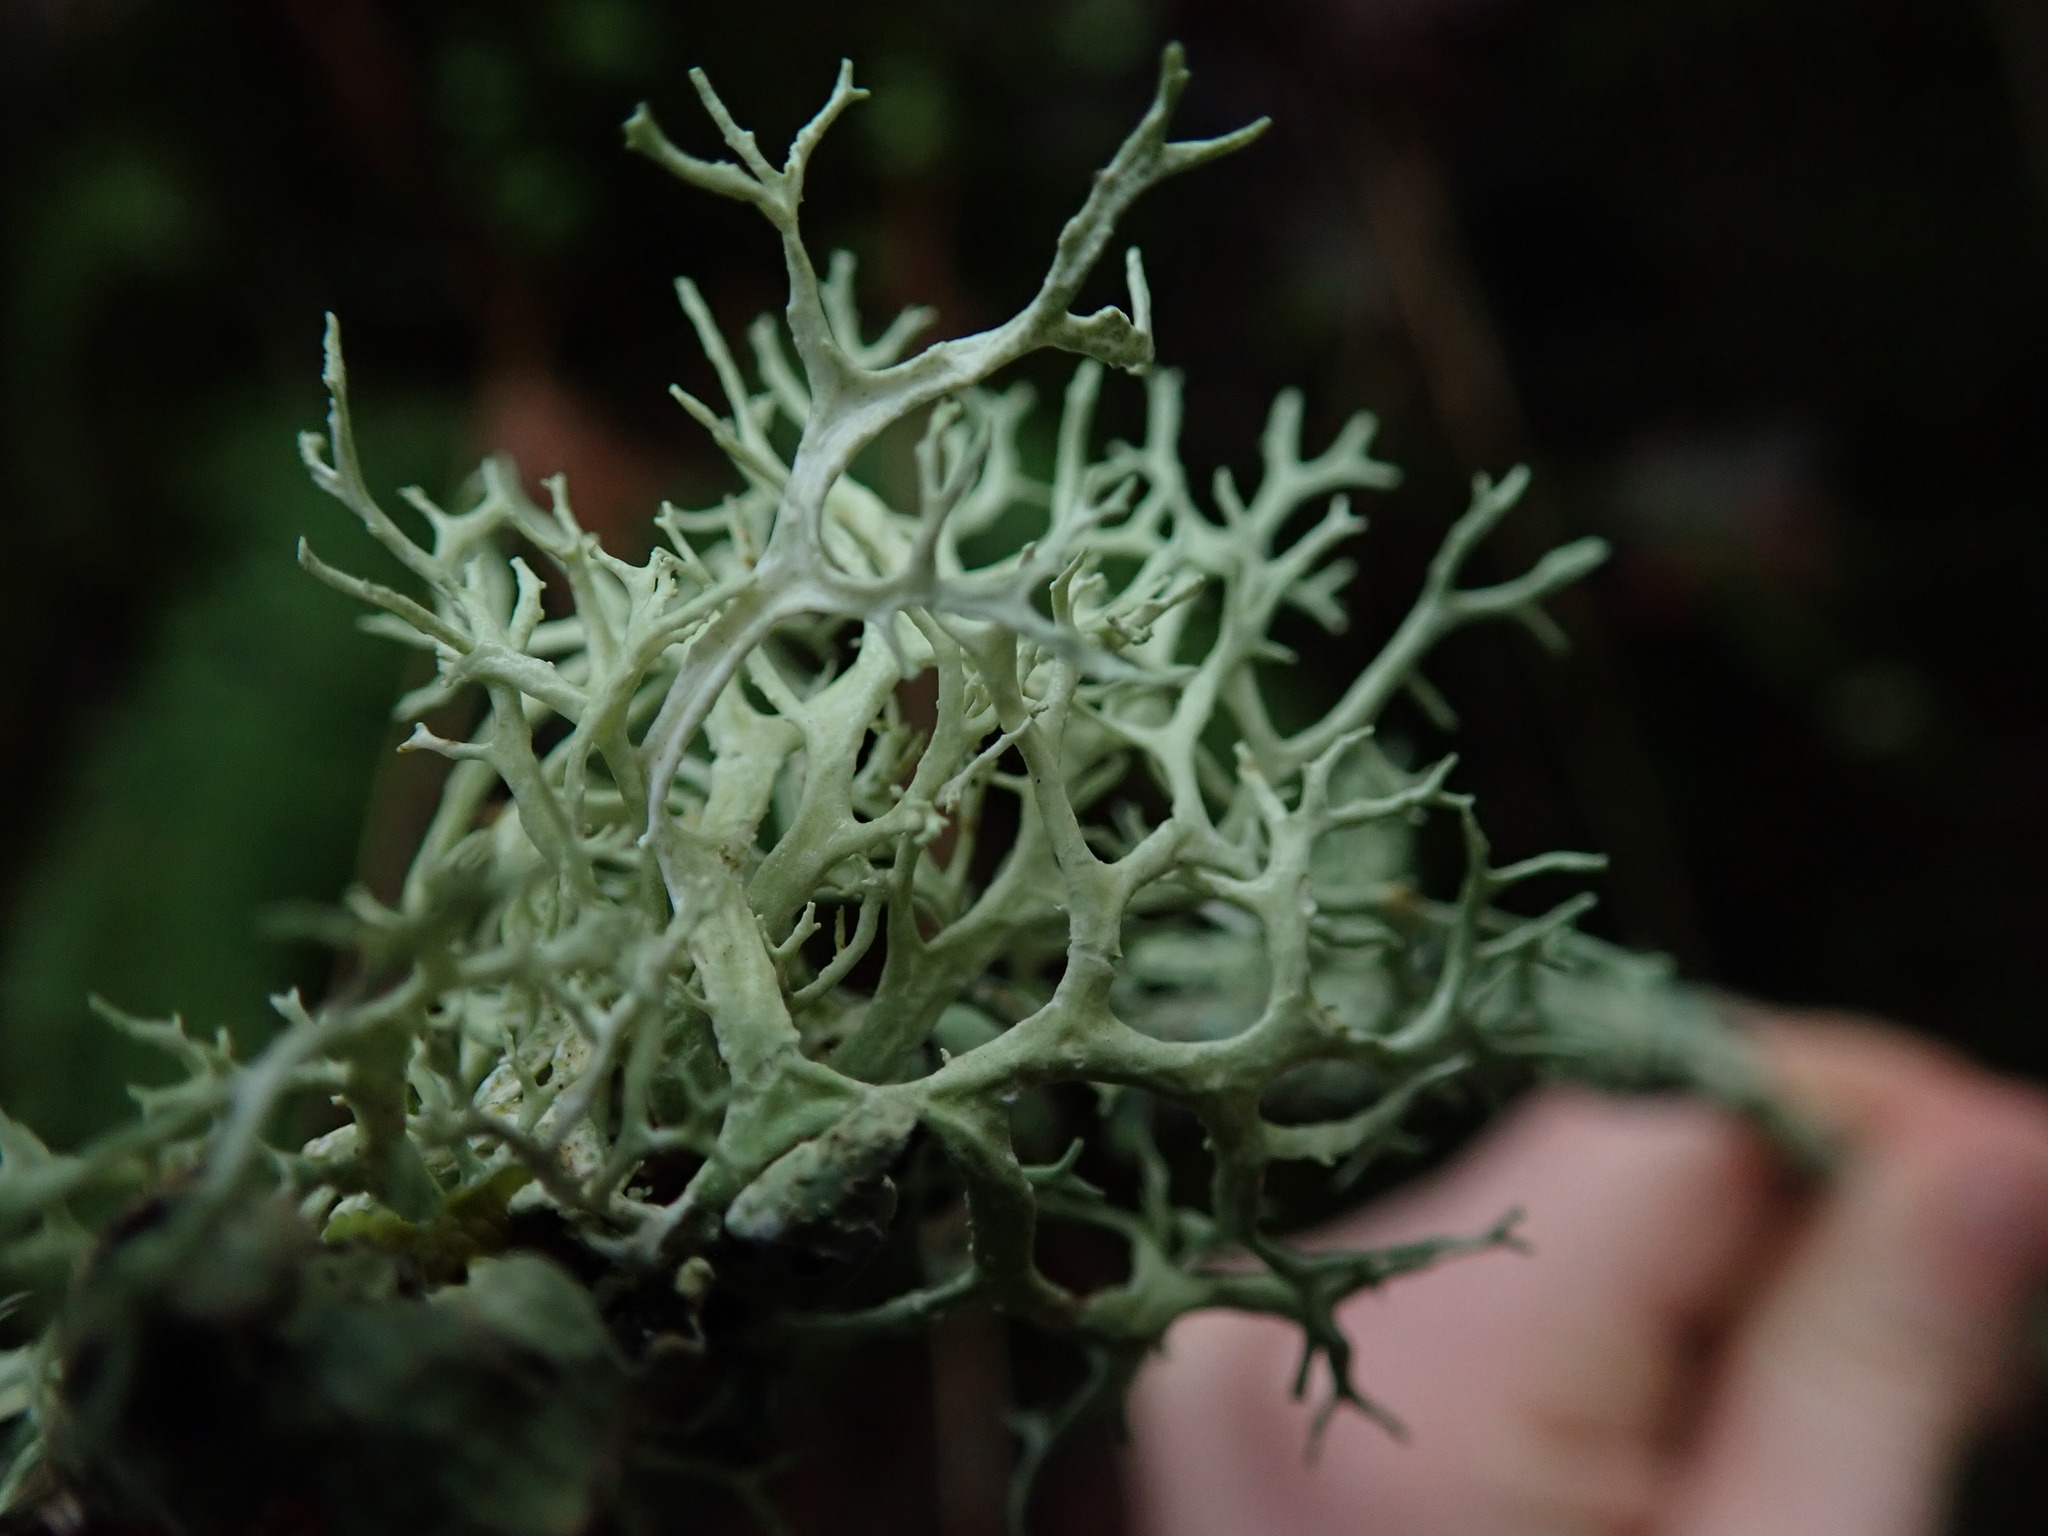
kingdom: Fungi
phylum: Ascomycota
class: Lecanoromycetes
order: Lecanorales
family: Parmeliaceae
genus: Evernia
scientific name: Evernia prunastri
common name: Oak moss
